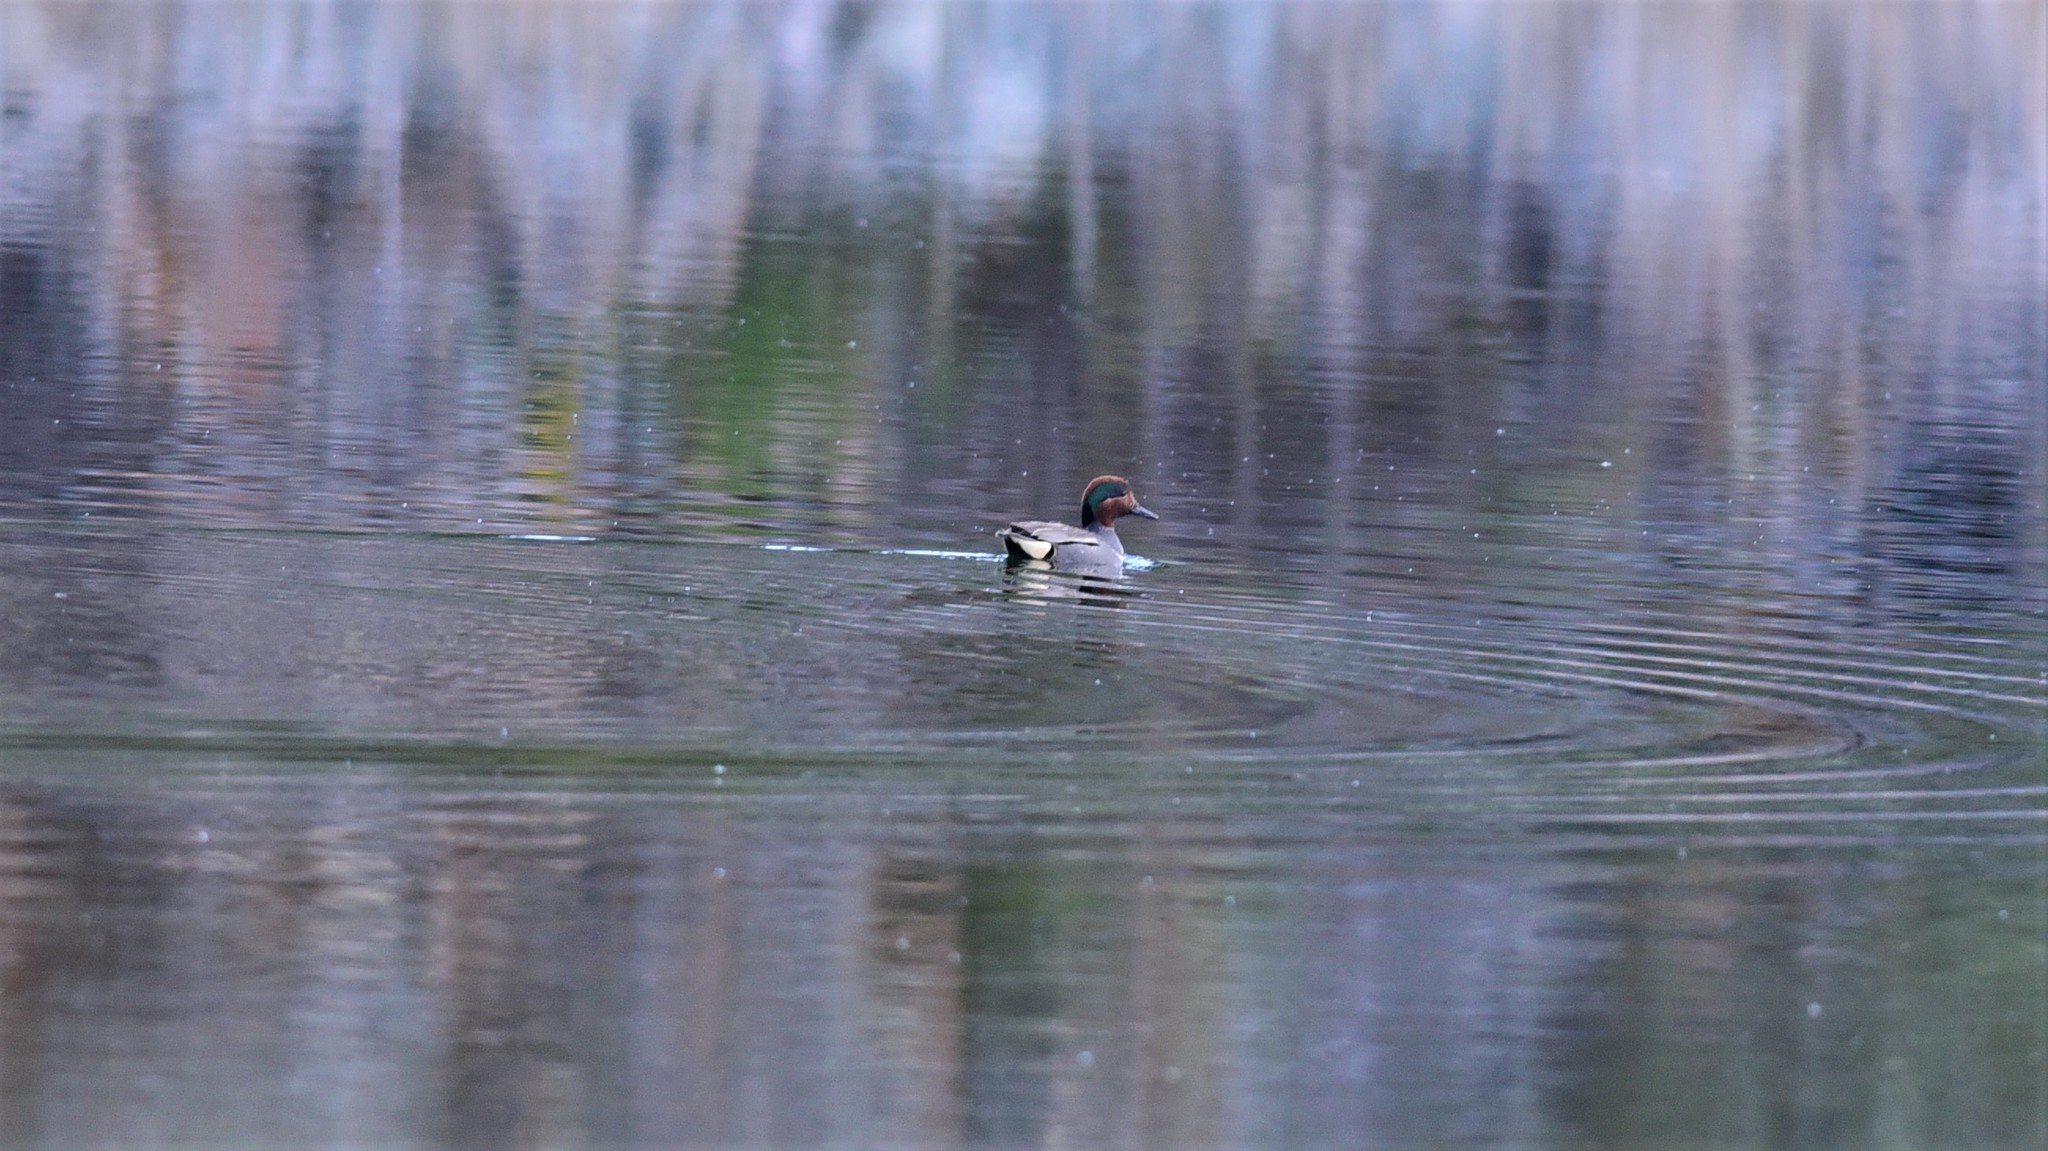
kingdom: Animalia
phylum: Chordata
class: Aves
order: Anseriformes
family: Anatidae
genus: Anas
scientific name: Anas crecca
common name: Eurasian teal
